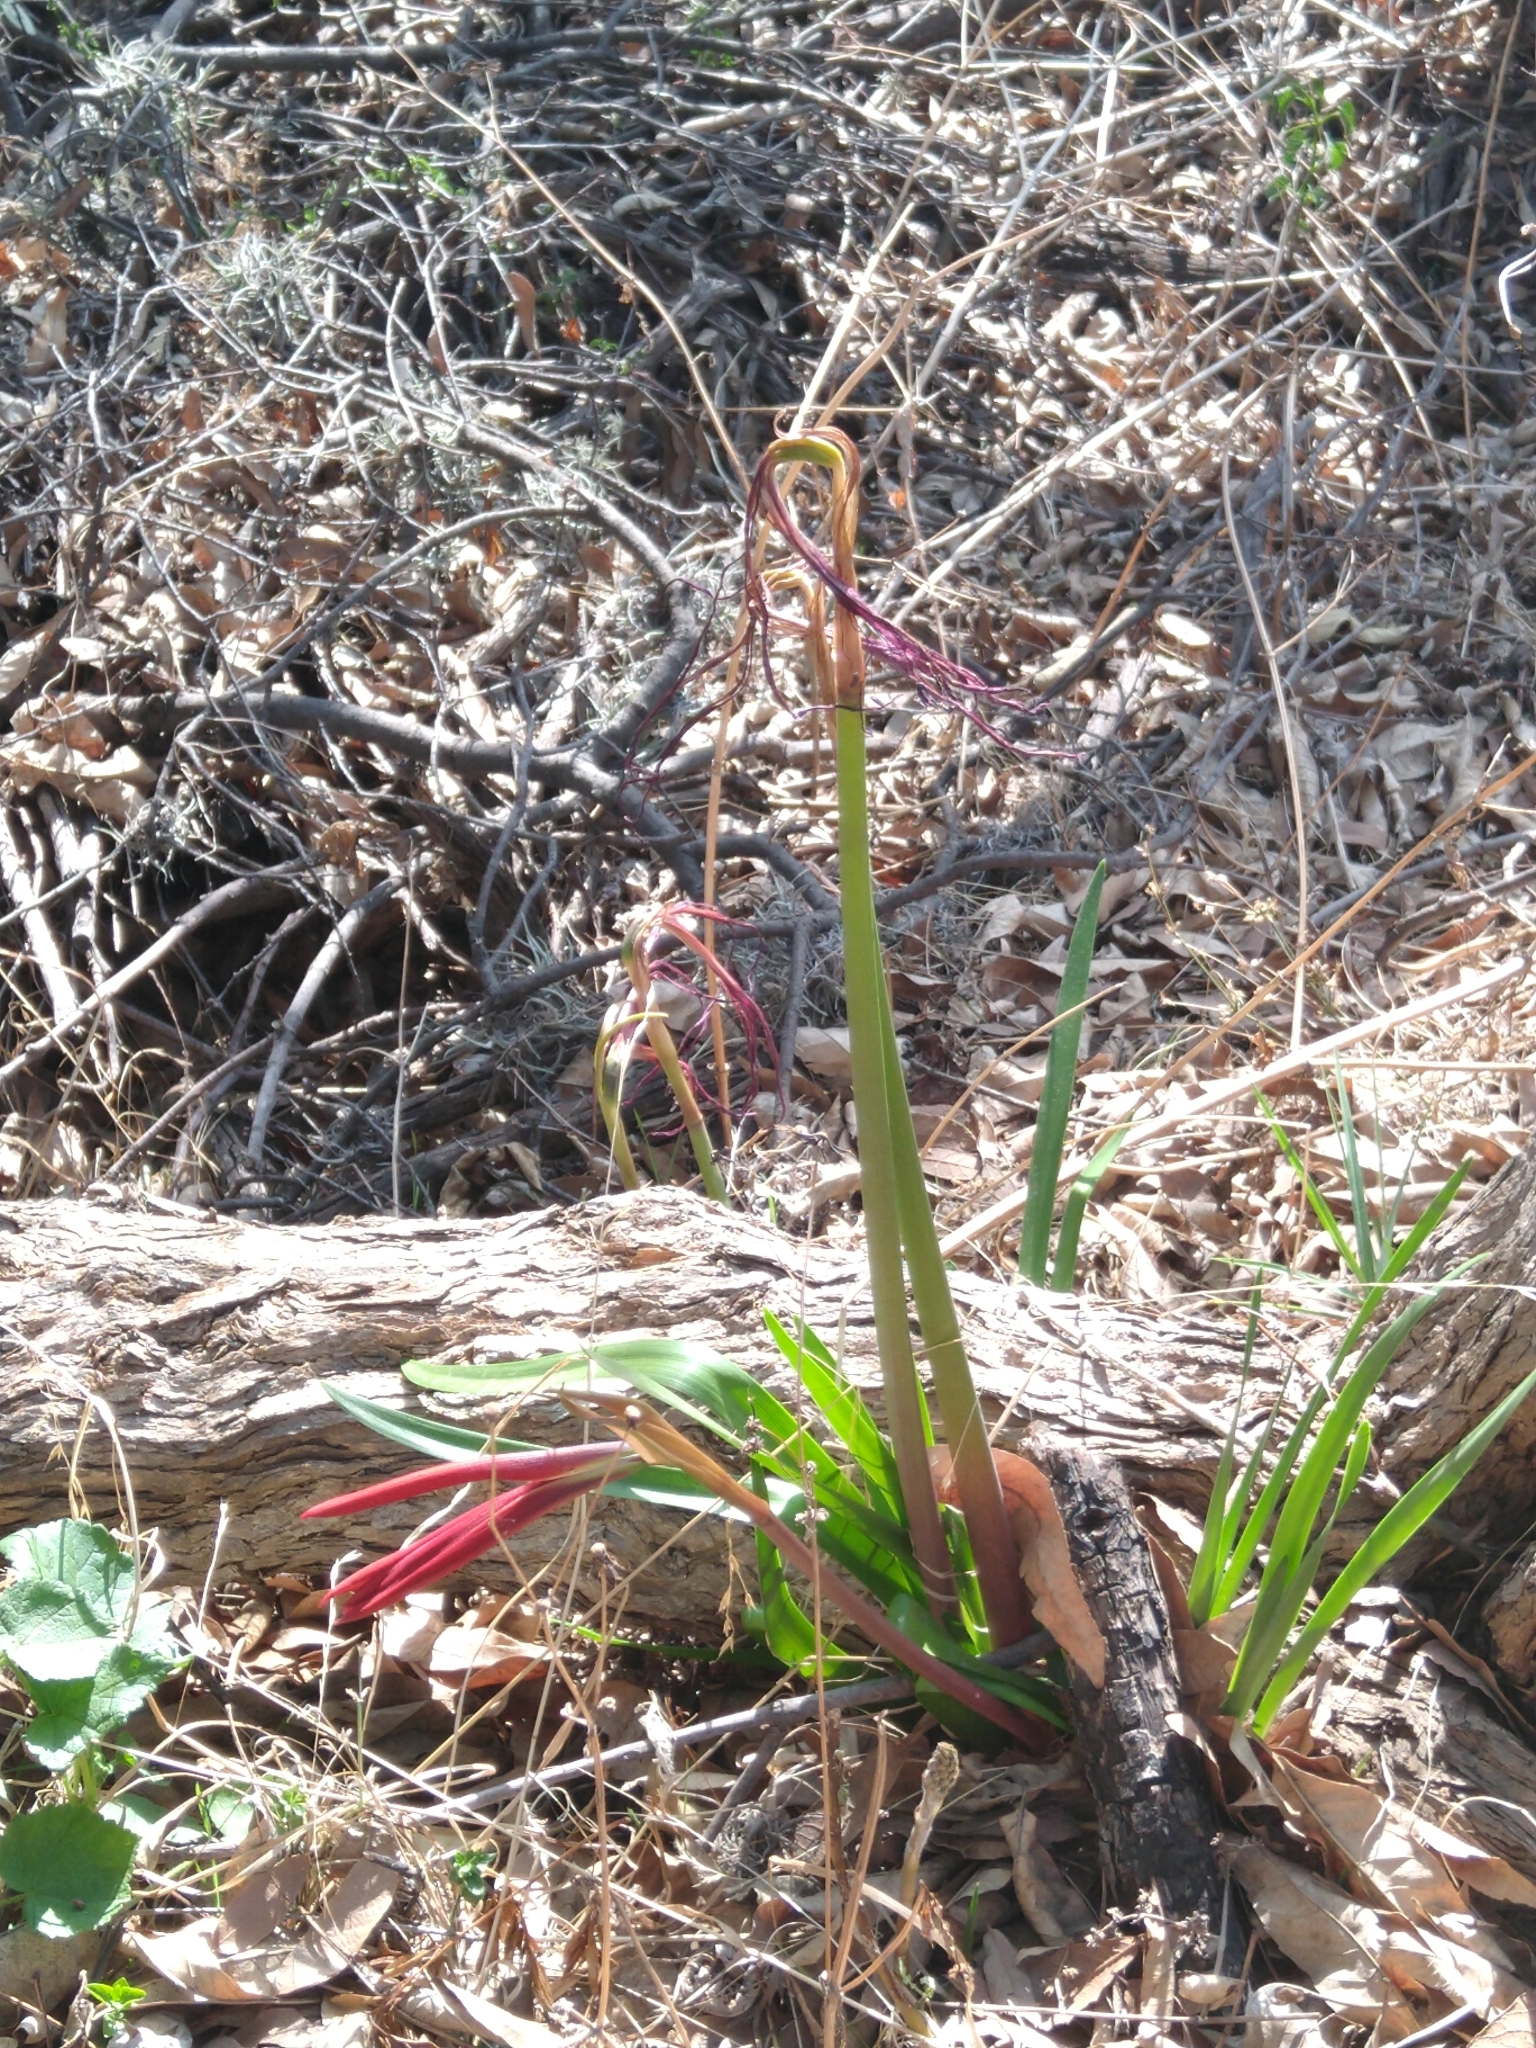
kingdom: Plantae
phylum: Tracheophyta
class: Liliopsida
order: Asparagales
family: Amaryllidaceae
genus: Sprekelia
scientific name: Sprekelia formosissima
